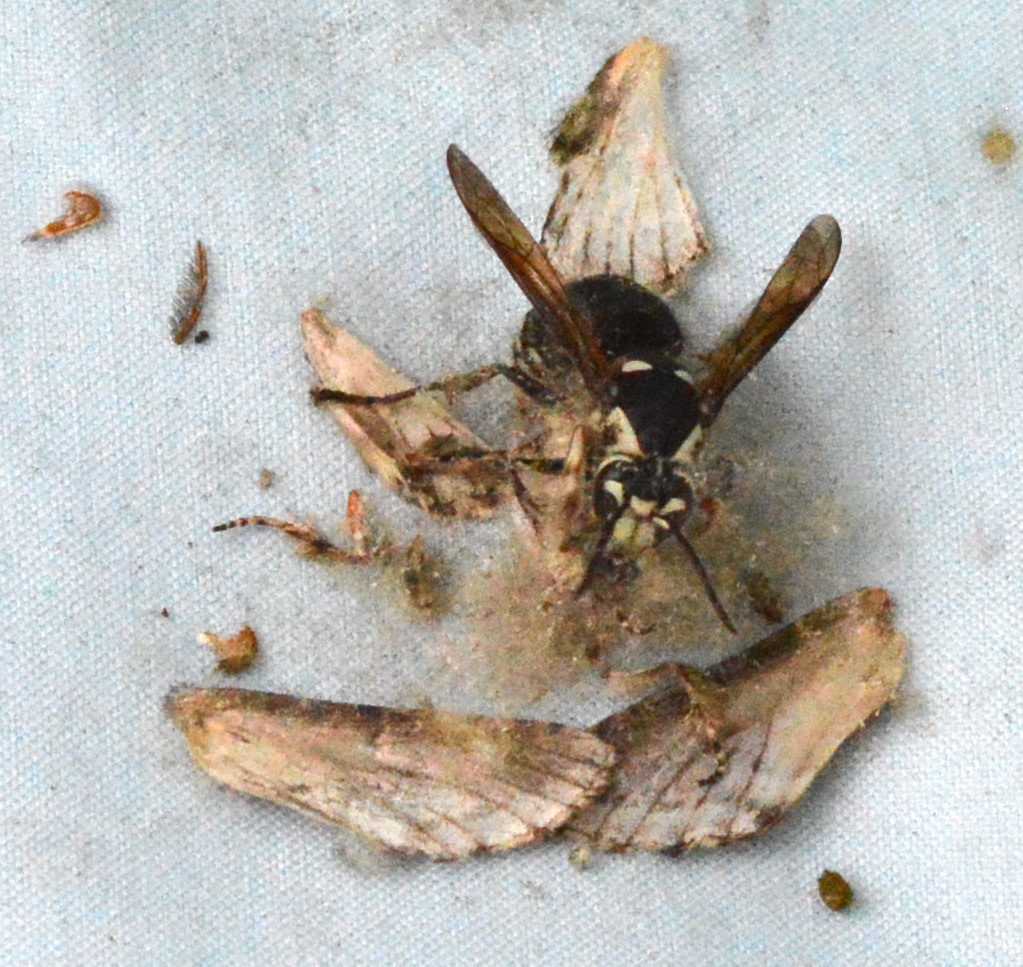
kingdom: Animalia
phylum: Arthropoda
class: Insecta
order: Hymenoptera
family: Vespidae
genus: Dolichovespula
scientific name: Dolichovespula maculata
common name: Bald-faced hornet
